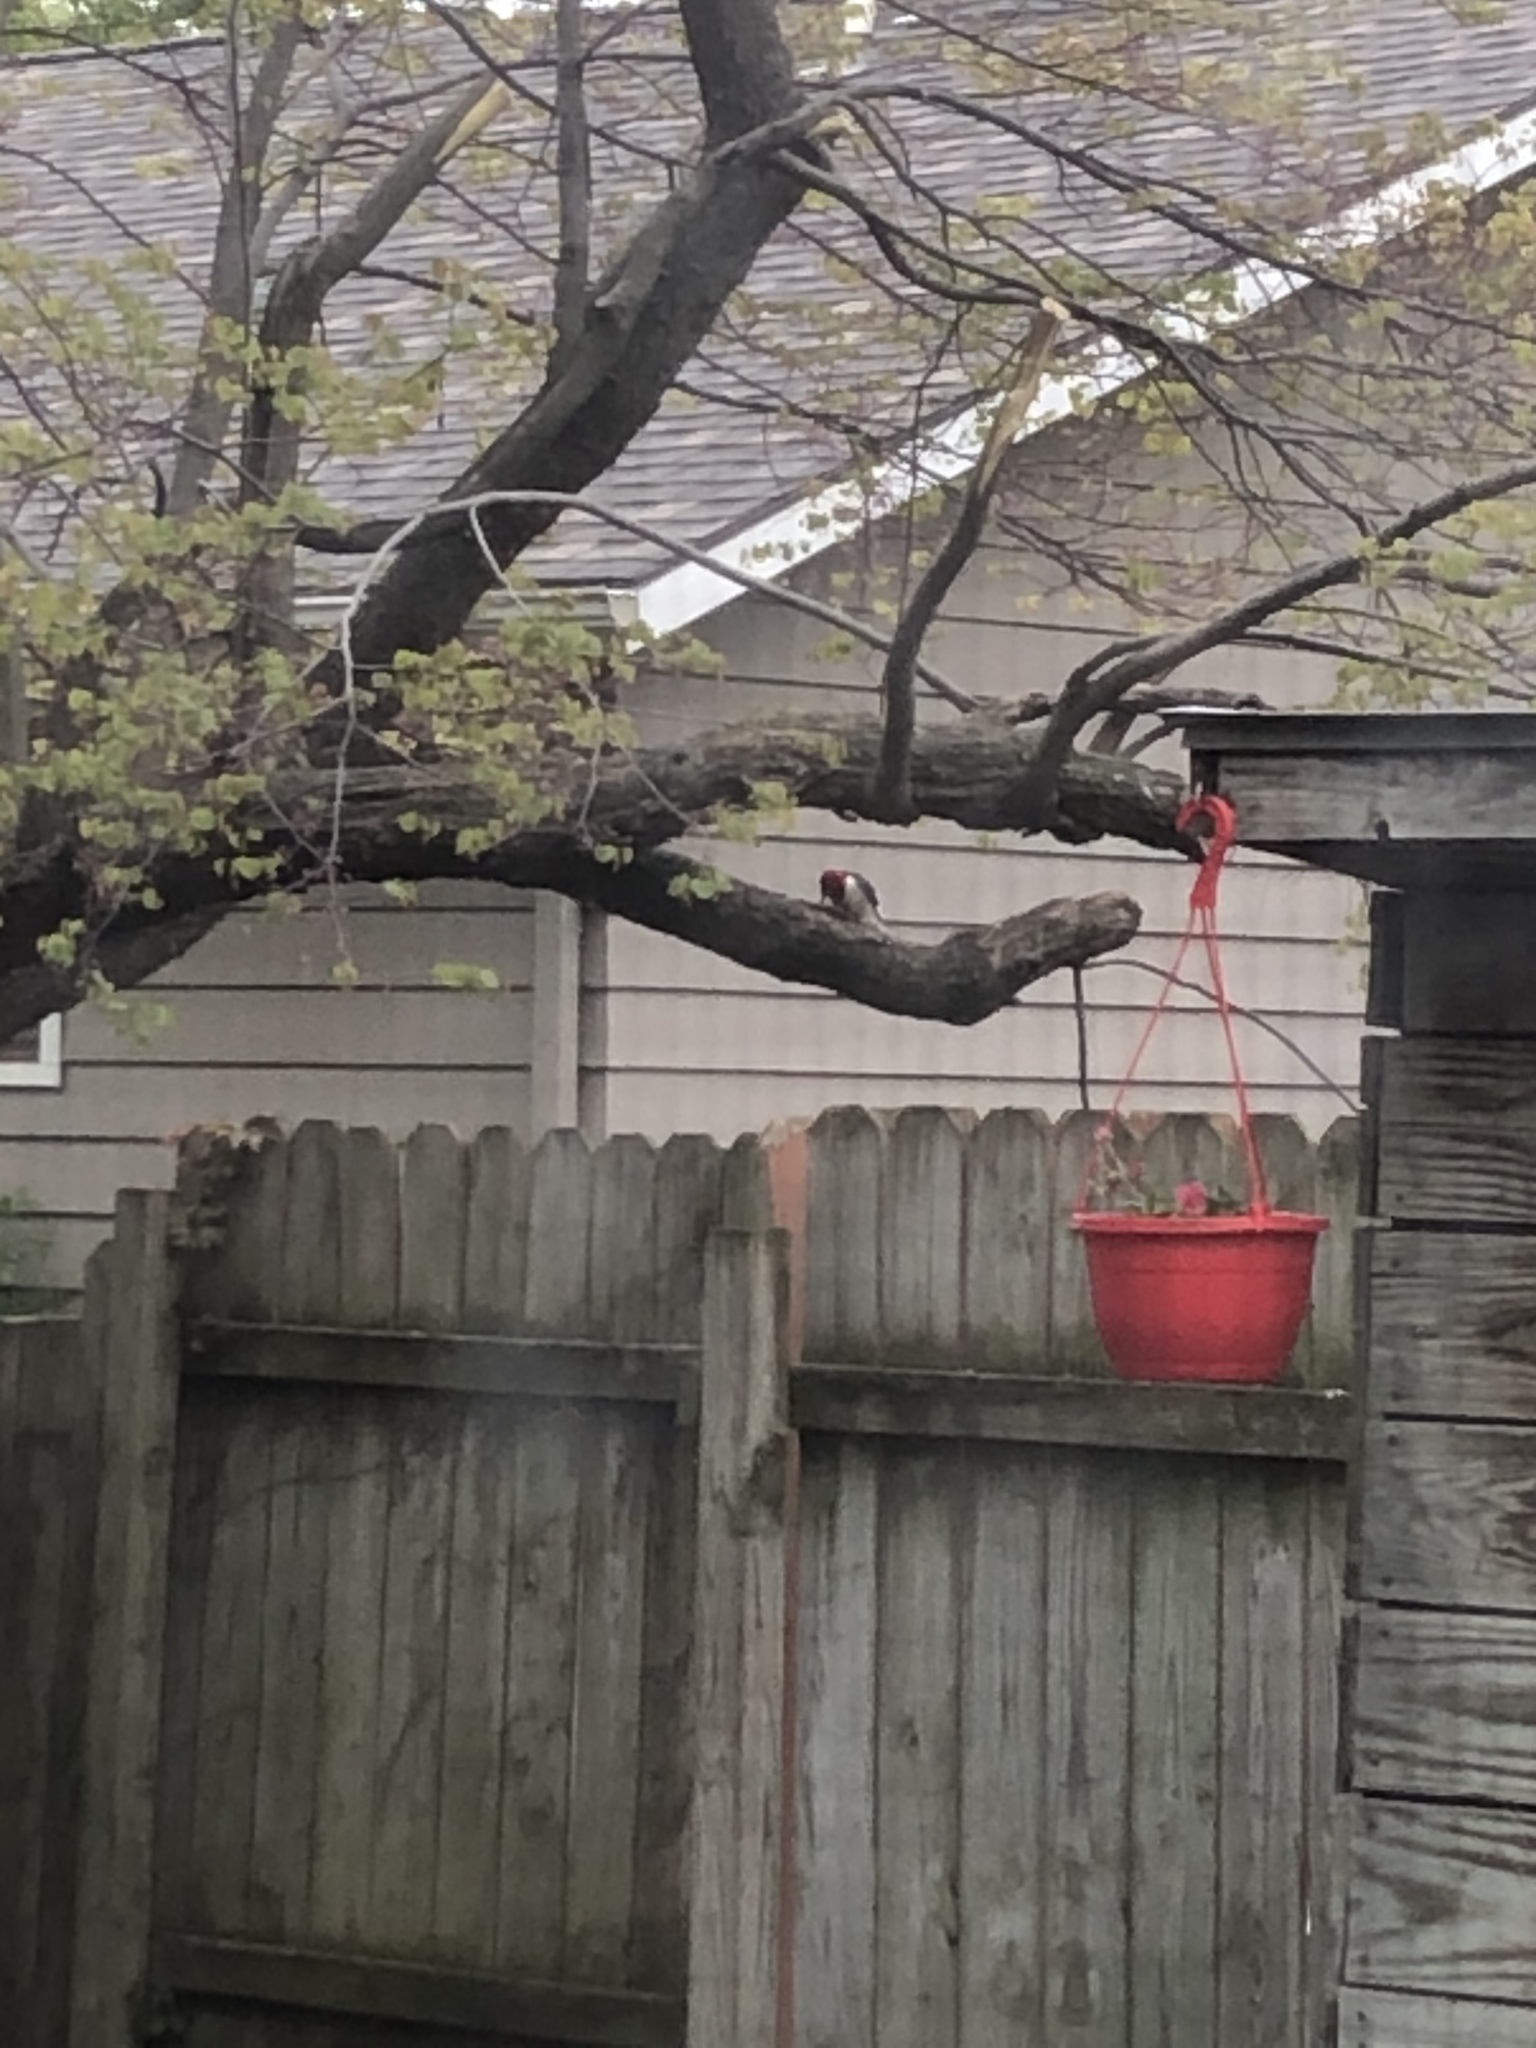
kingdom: Animalia
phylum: Chordata
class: Aves
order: Piciformes
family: Picidae
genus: Melanerpes
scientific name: Melanerpes erythrocephalus
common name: Red-headed woodpecker
